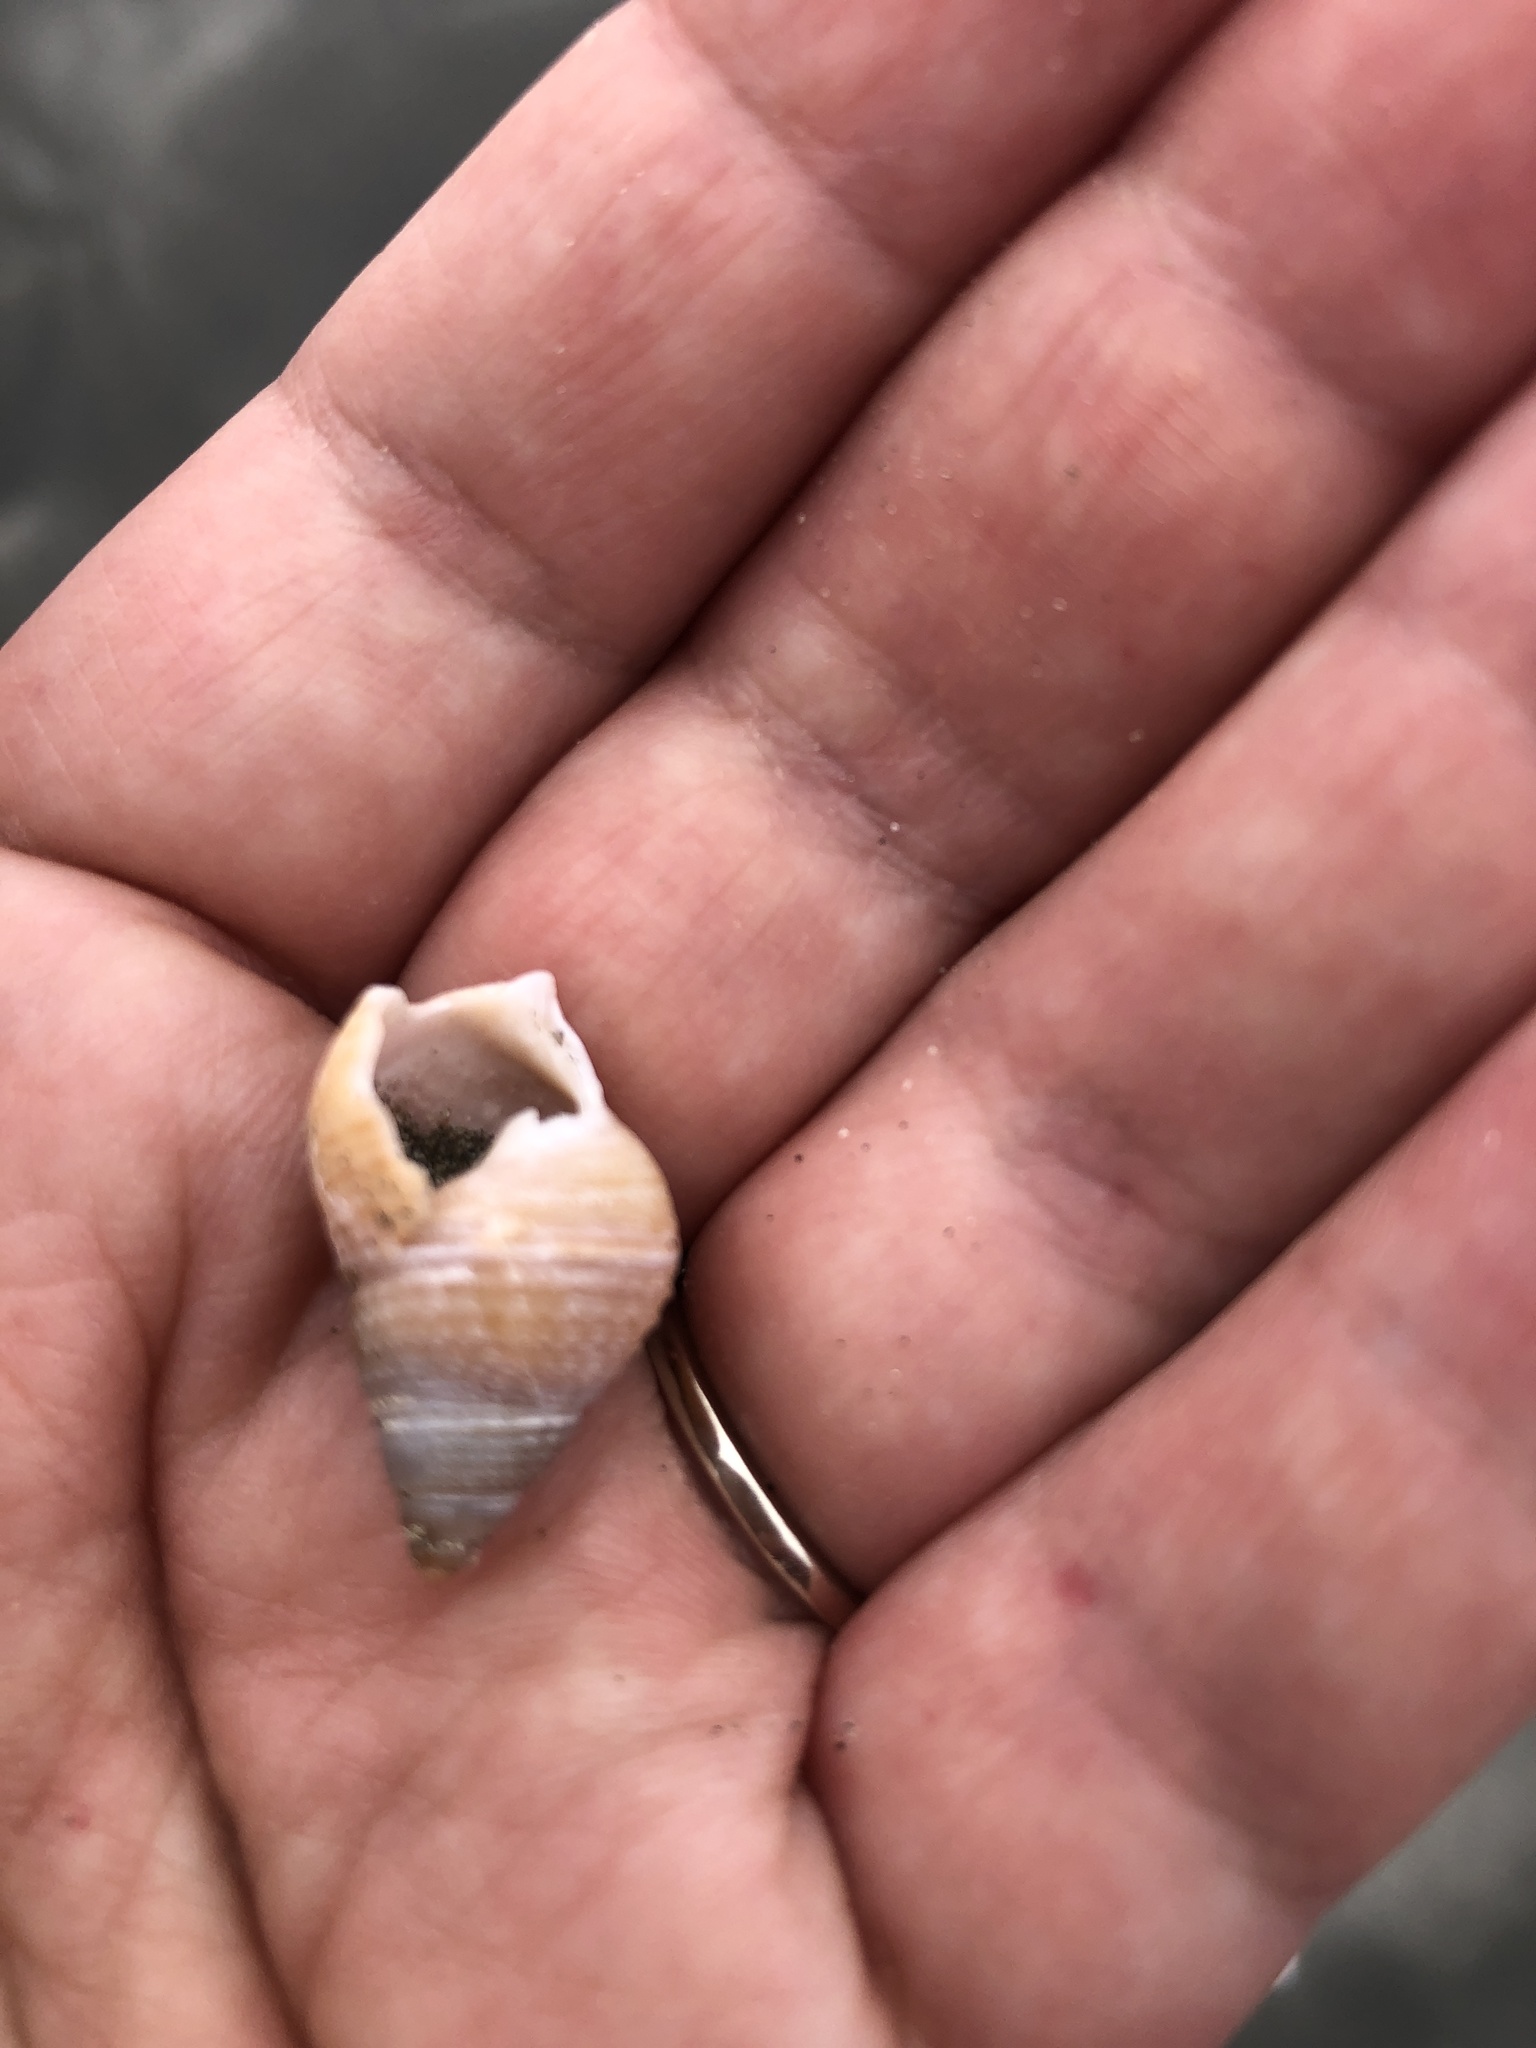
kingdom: Animalia
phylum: Mollusca
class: Gastropoda
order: Neogastropoda
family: Nassariidae
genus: Caesia
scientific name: Caesia fossata
